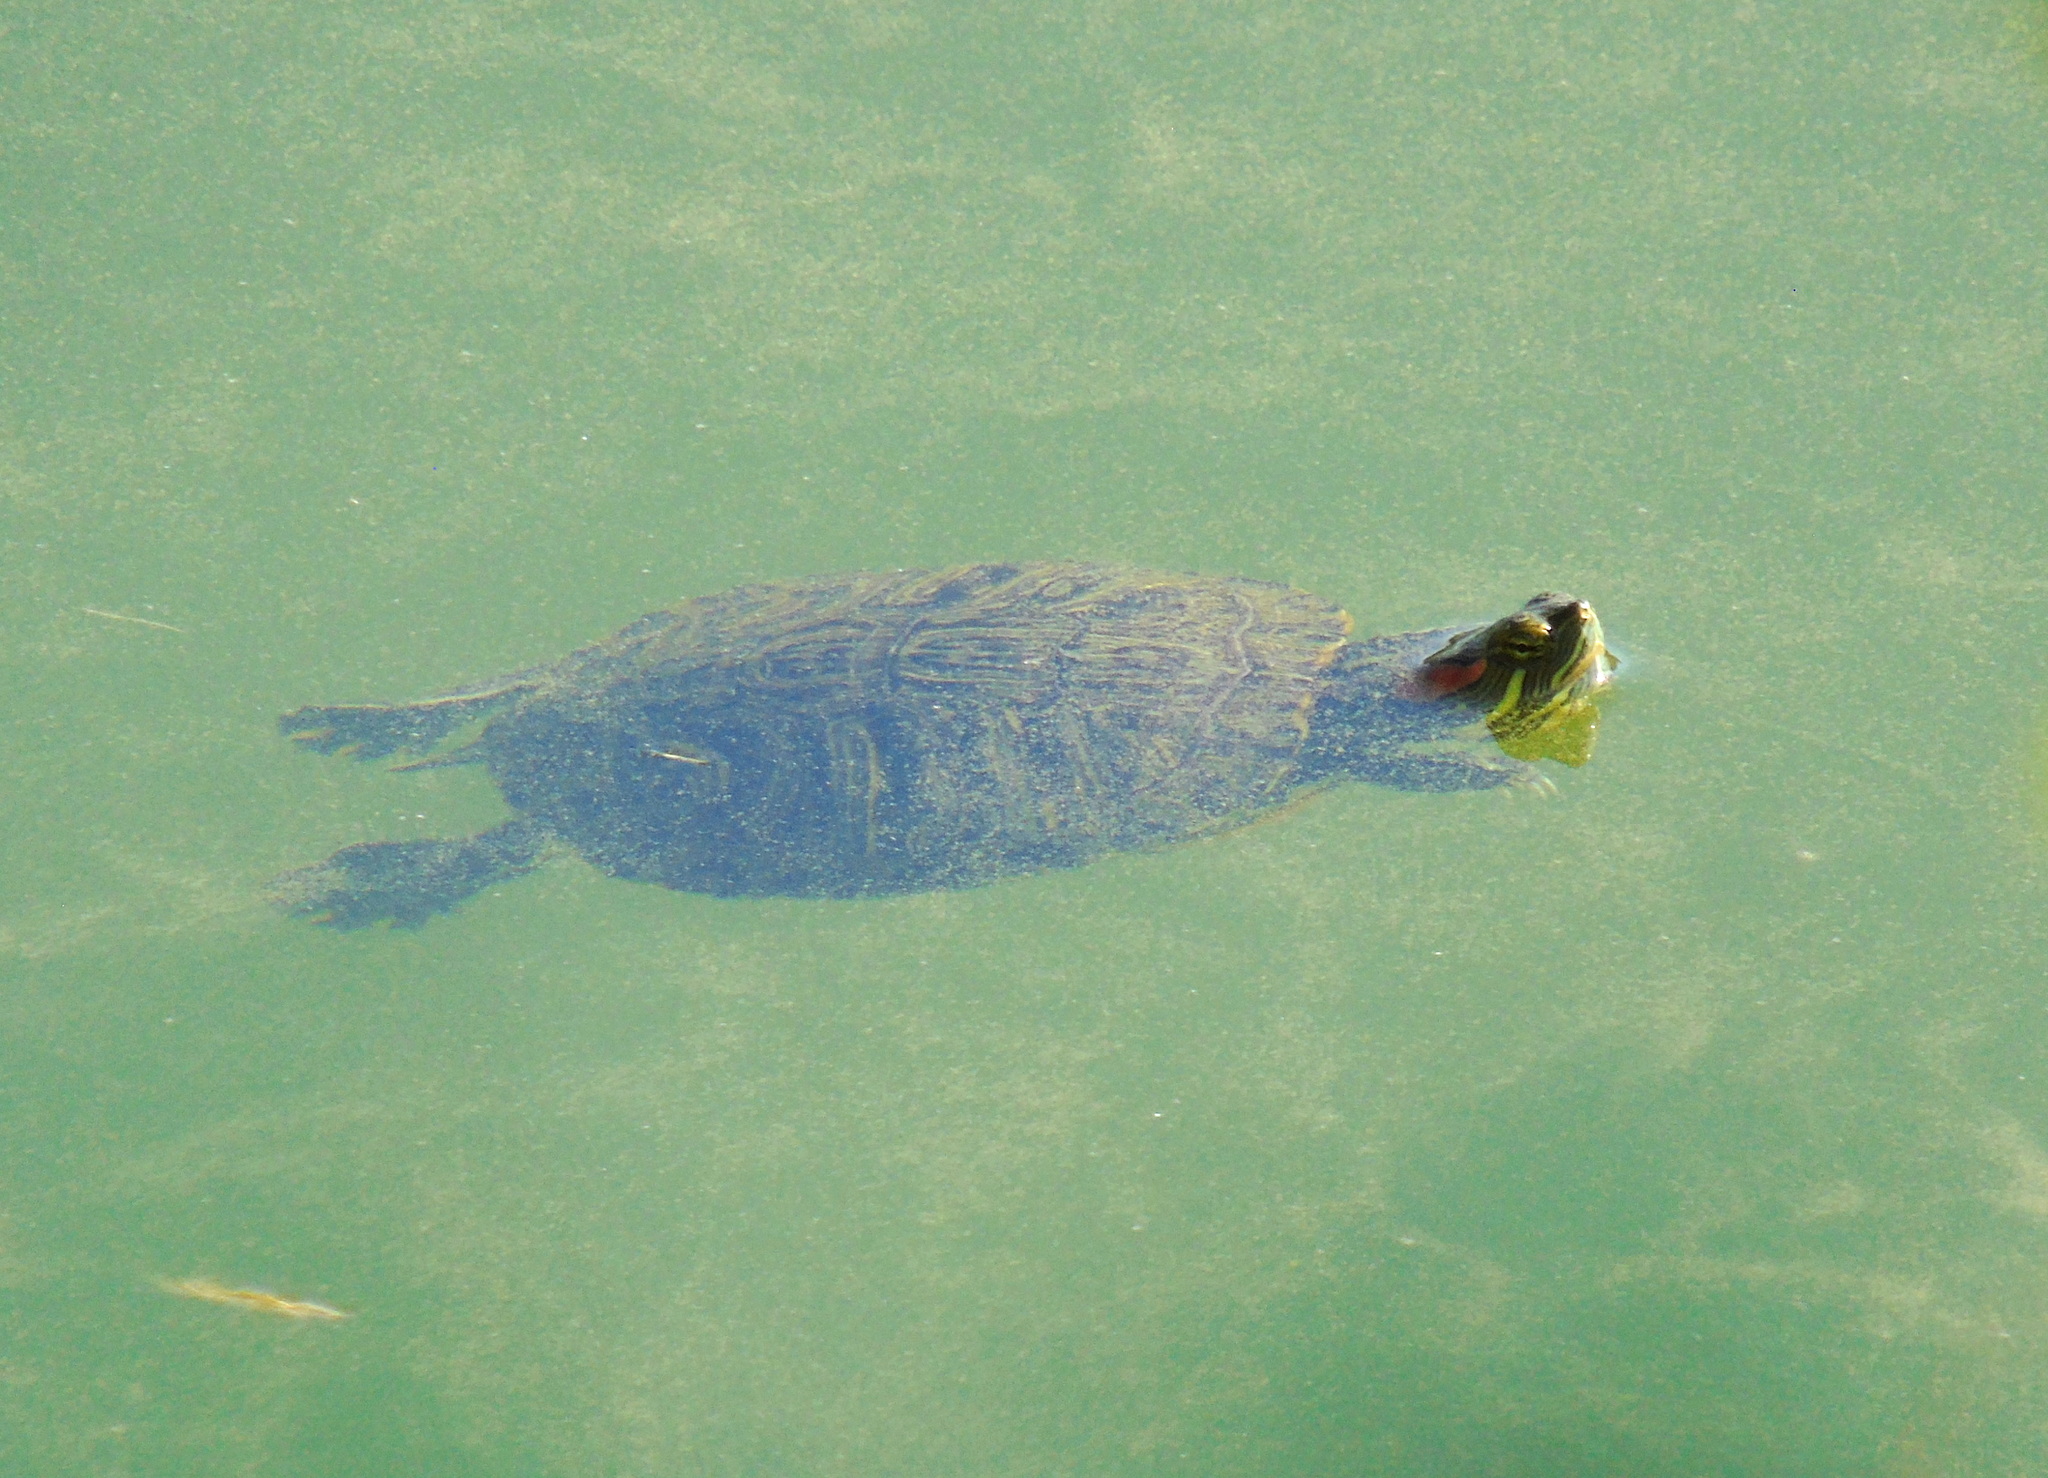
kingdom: Animalia
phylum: Chordata
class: Testudines
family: Emydidae
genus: Trachemys
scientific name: Trachemys scripta
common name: Slider
